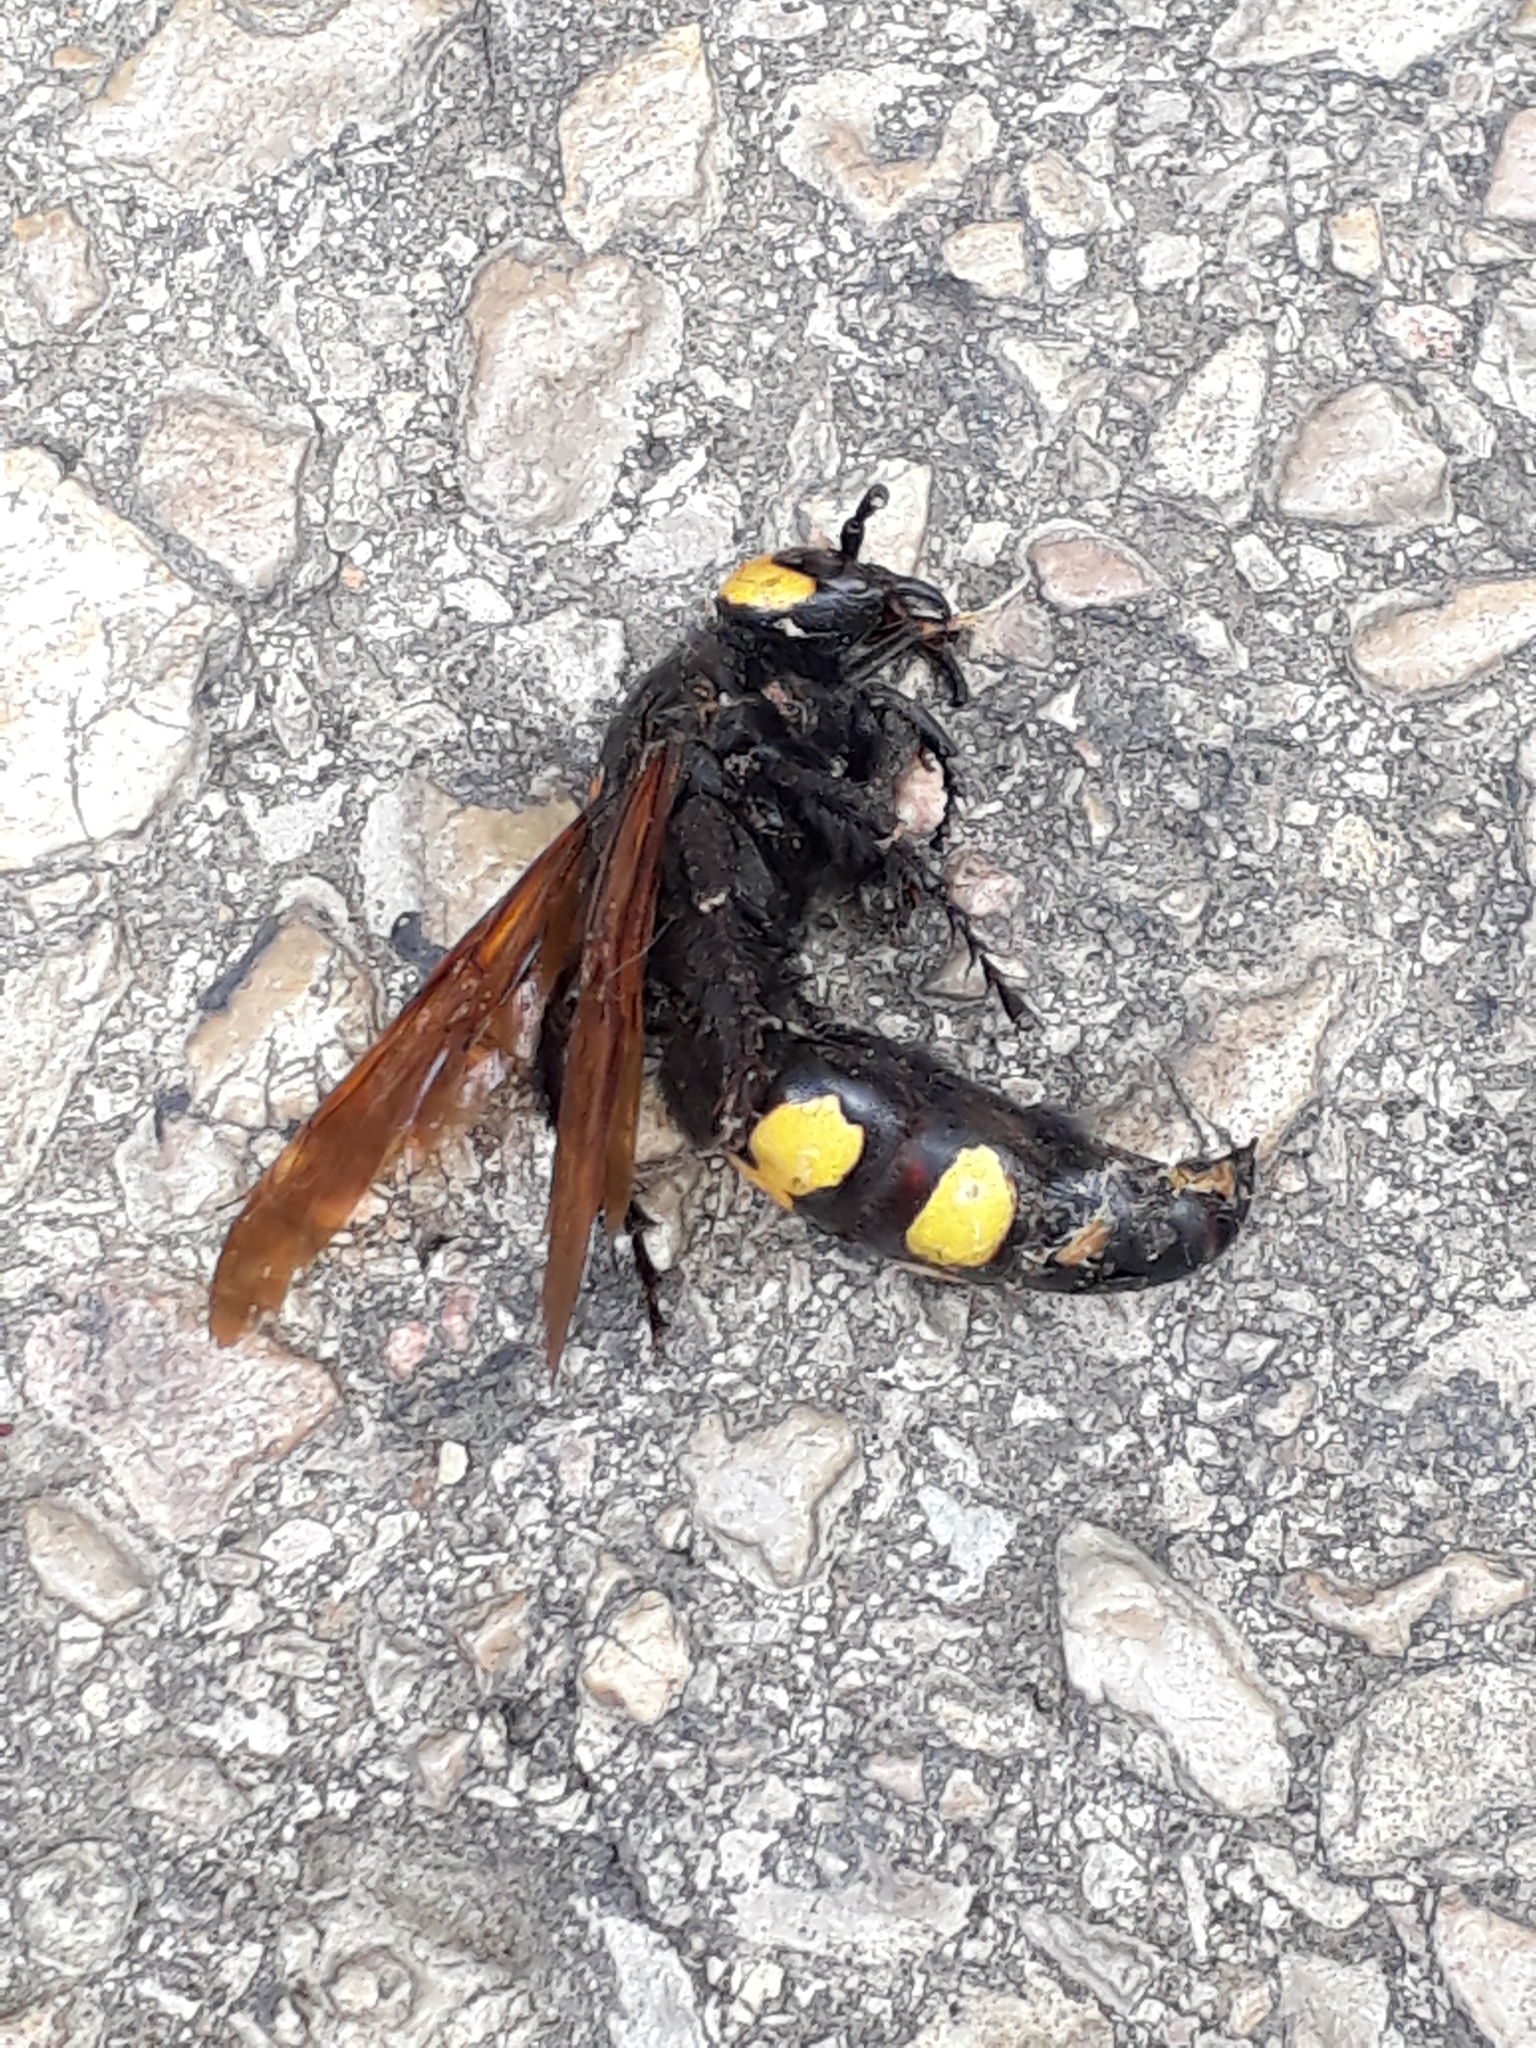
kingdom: Animalia
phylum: Arthropoda
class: Insecta
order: Hymenoptera
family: Scoliidae
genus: Megascolia
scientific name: Megascolia maculata
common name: Mammoth wasp
